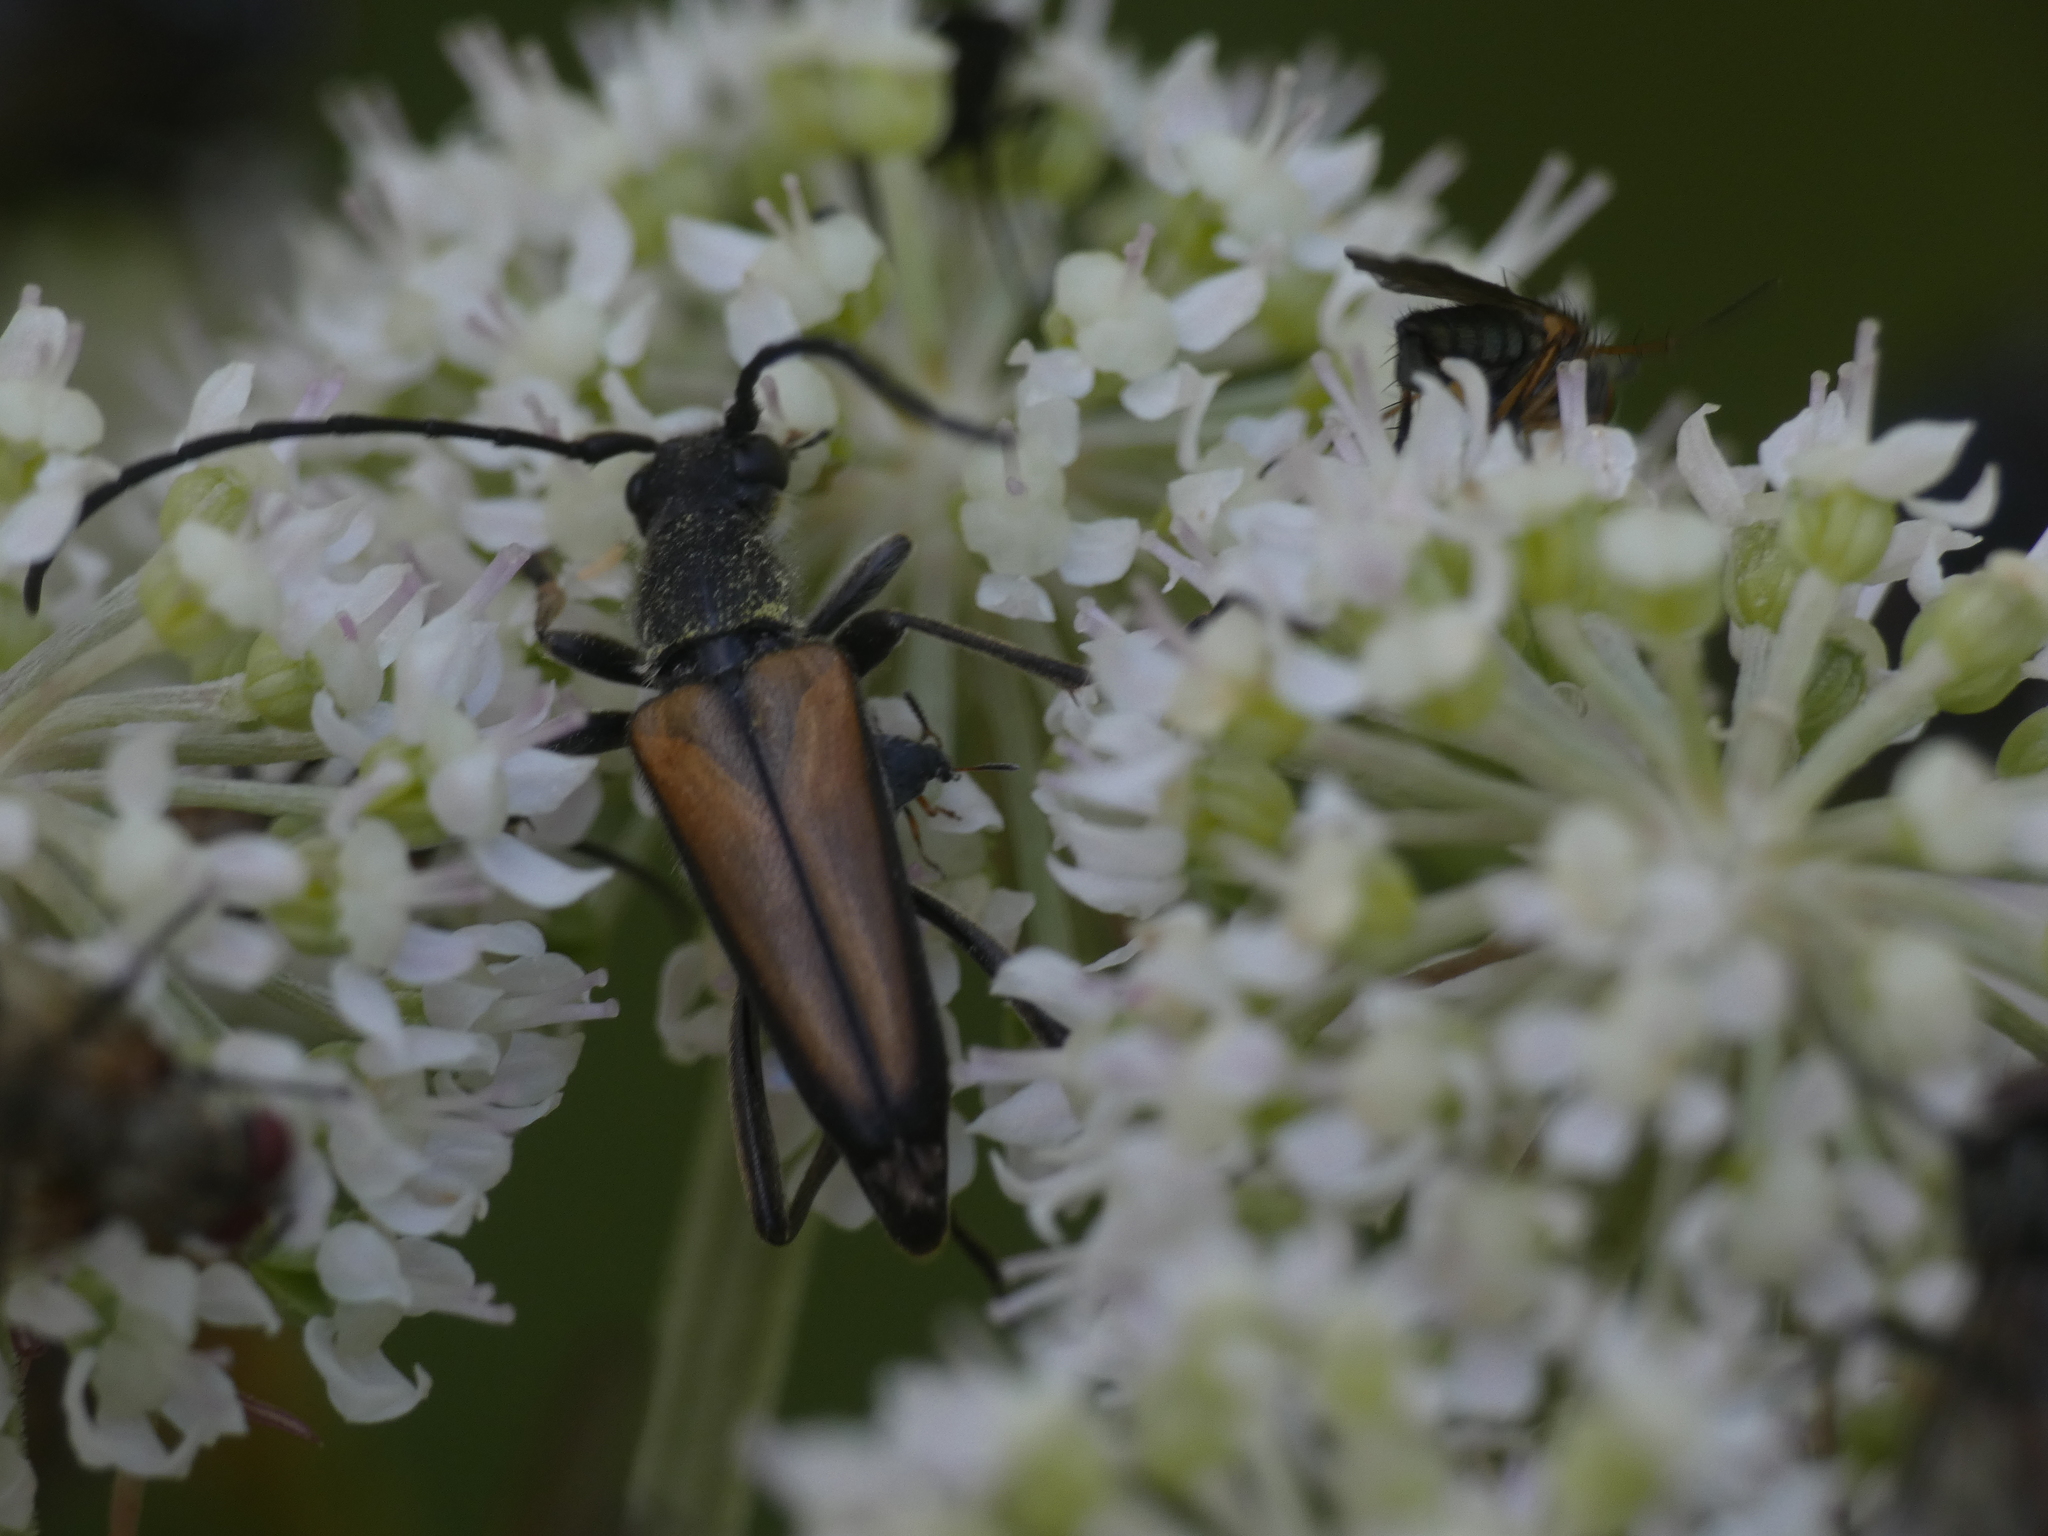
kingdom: Animalia
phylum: Arthropoda
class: Insecta
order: Coleoptera
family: Cerambycidae
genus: Anastrangalia
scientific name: Anastrangalia dubia
